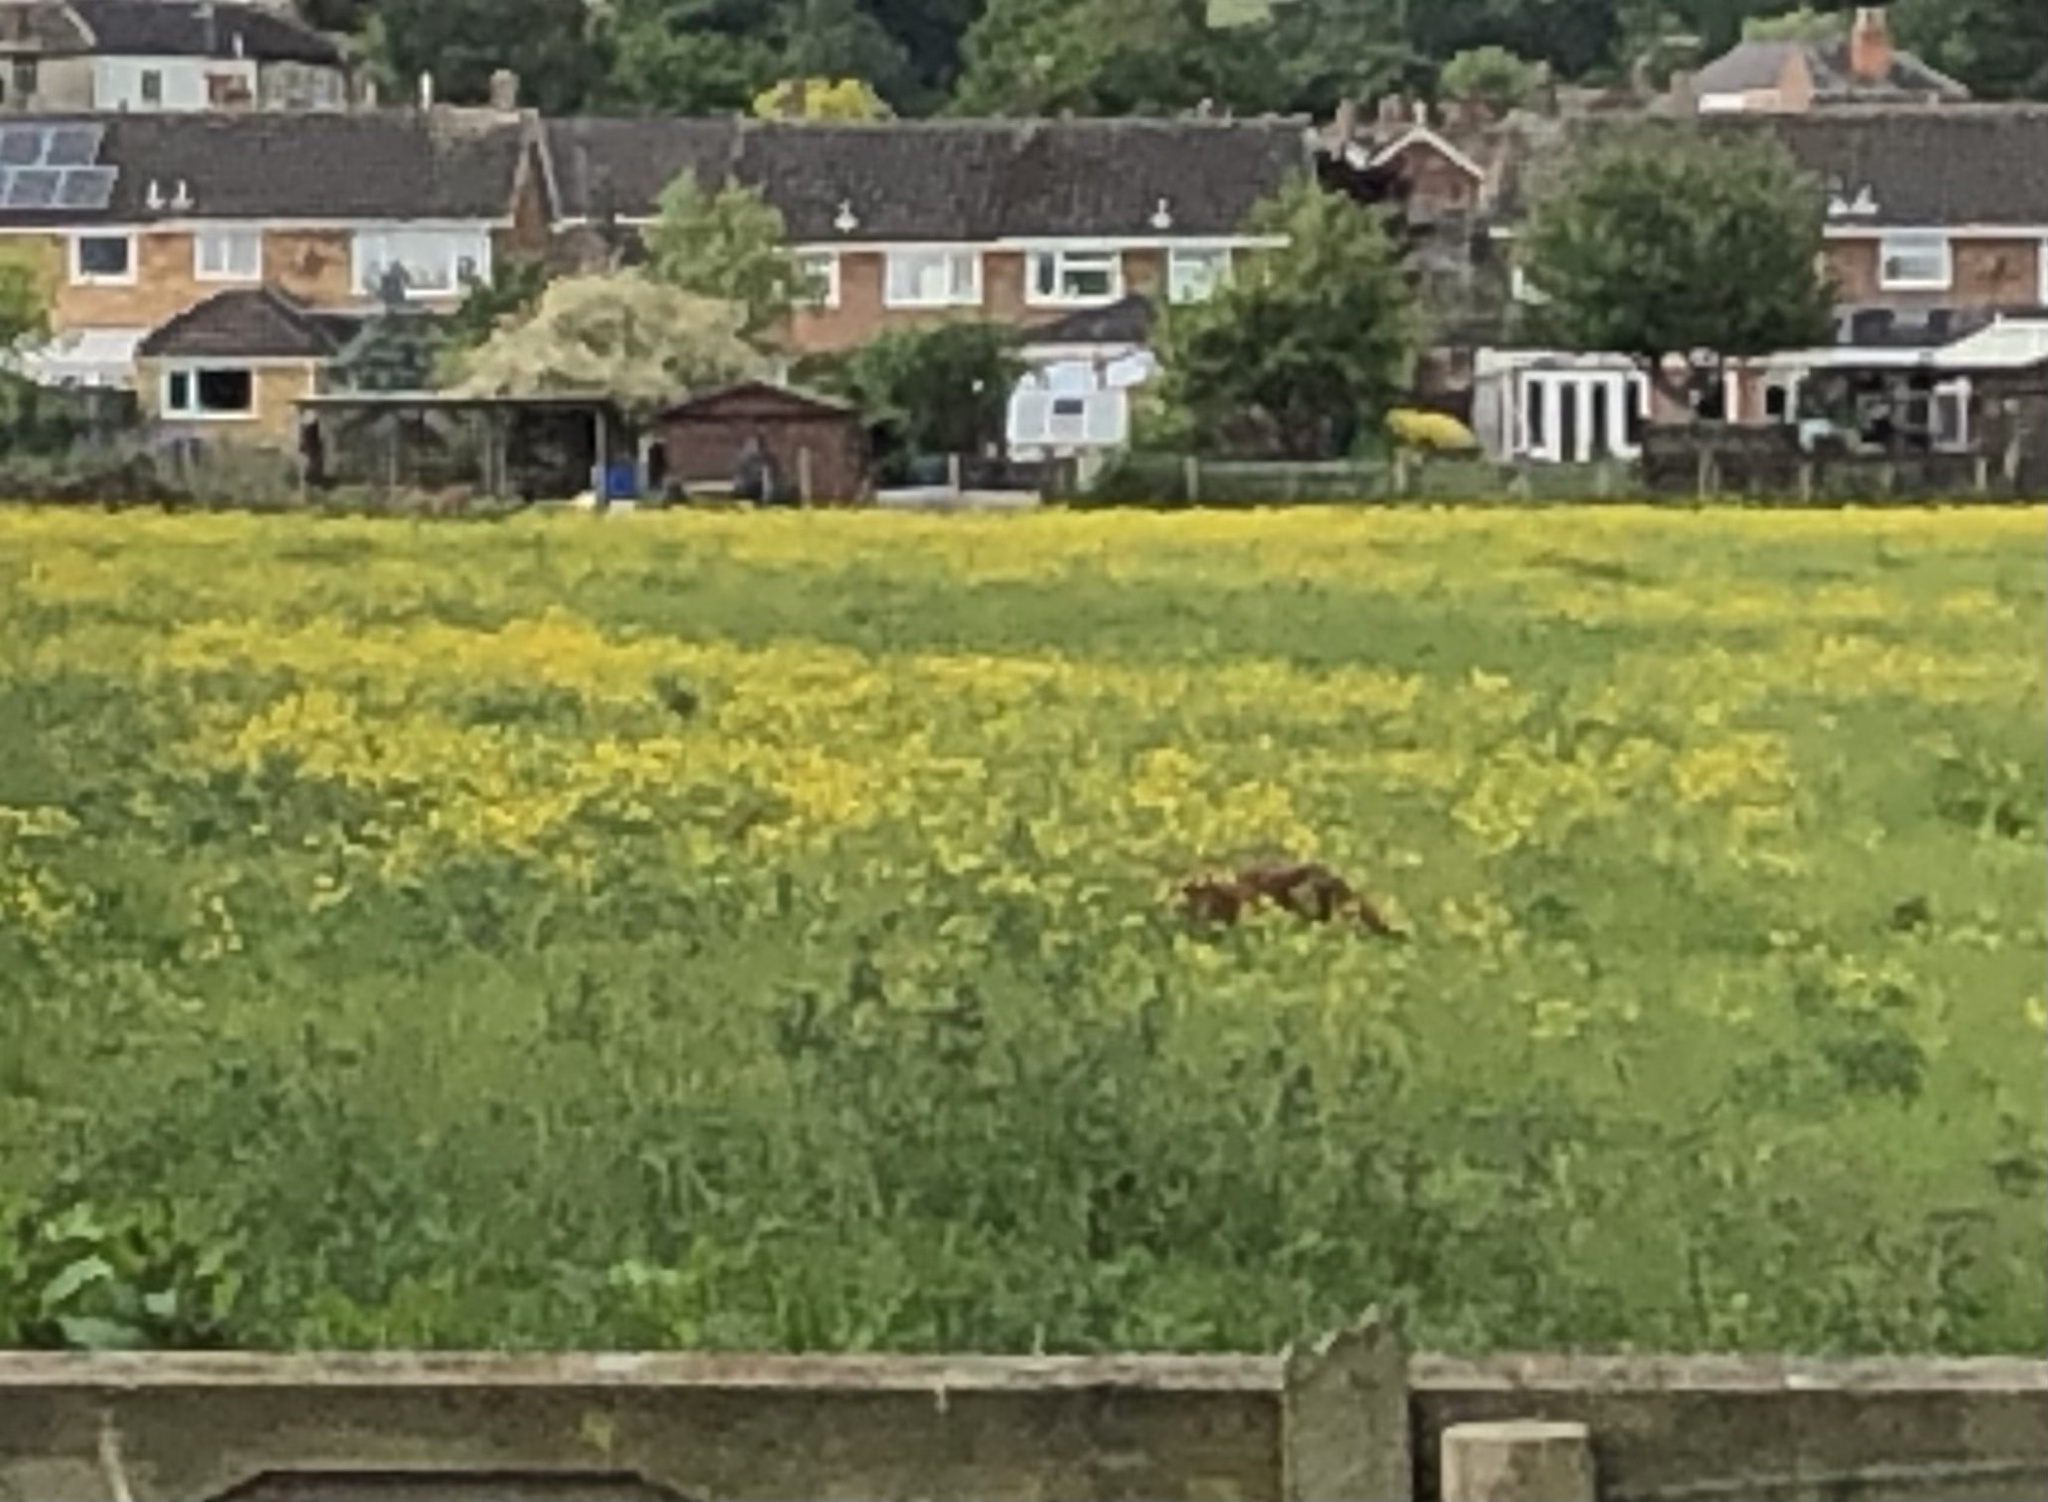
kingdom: Animalia
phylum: Chordata
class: Mammalia
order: Carnivora
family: Canidae
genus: Vulpes
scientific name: Vulpes vulpes
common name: Red fox
